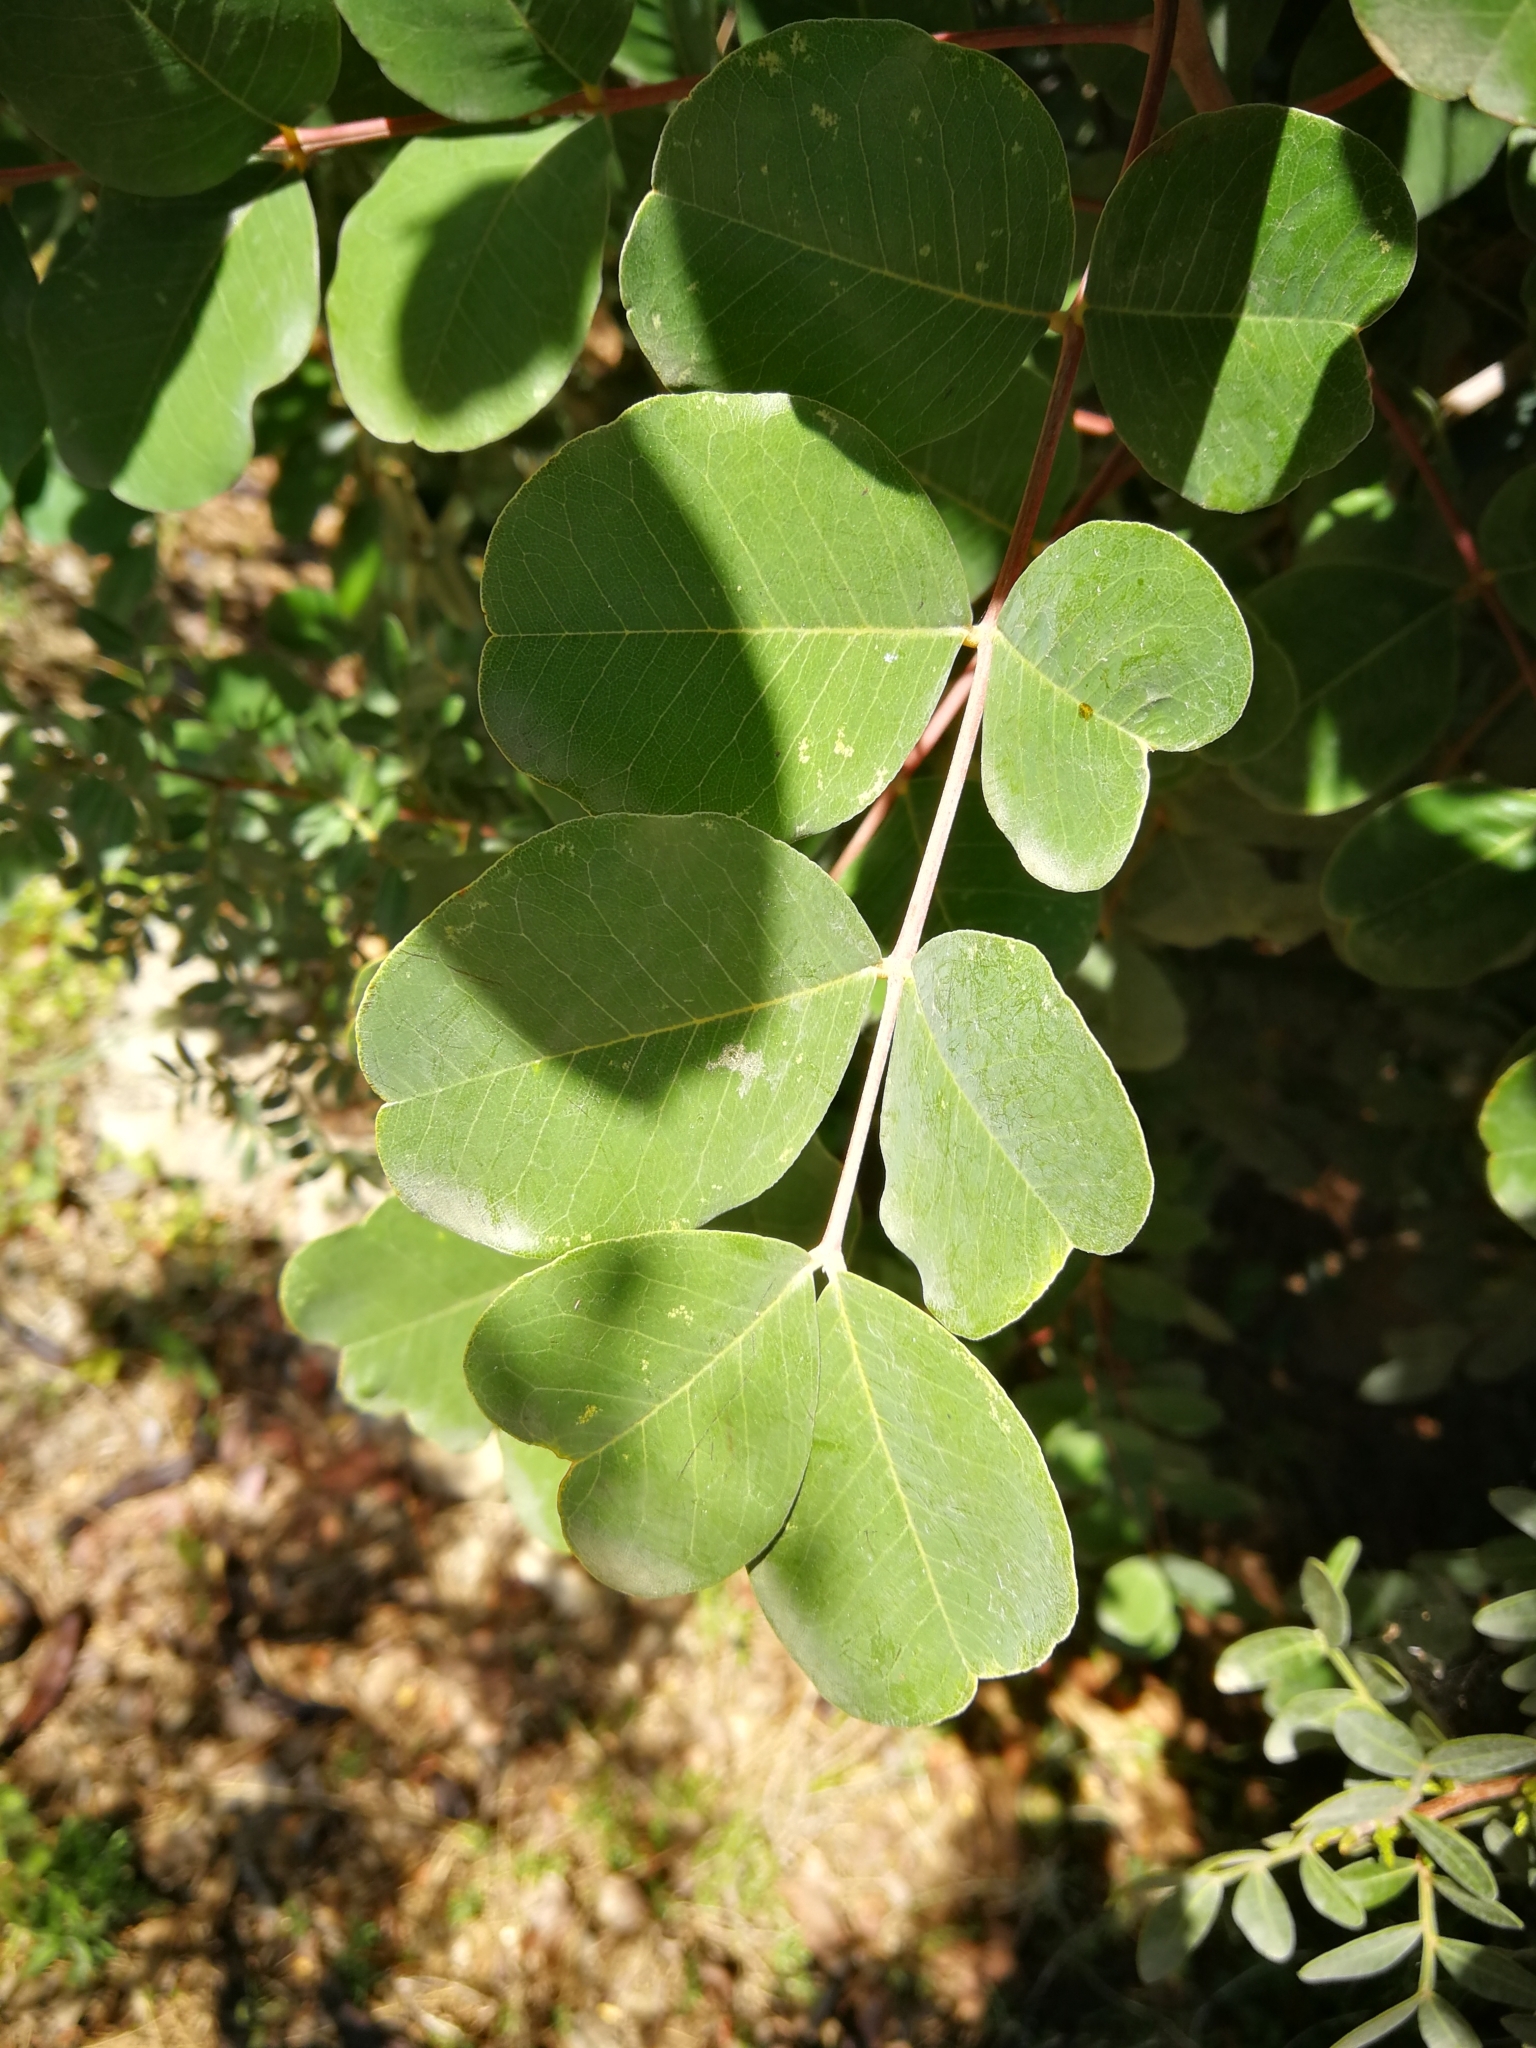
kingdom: Plantae
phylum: Tracheophyta
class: Magnoliopsida
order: Fabales
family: Fabaceae
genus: Ceratonia
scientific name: Ceratonia siliqua
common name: Carob
